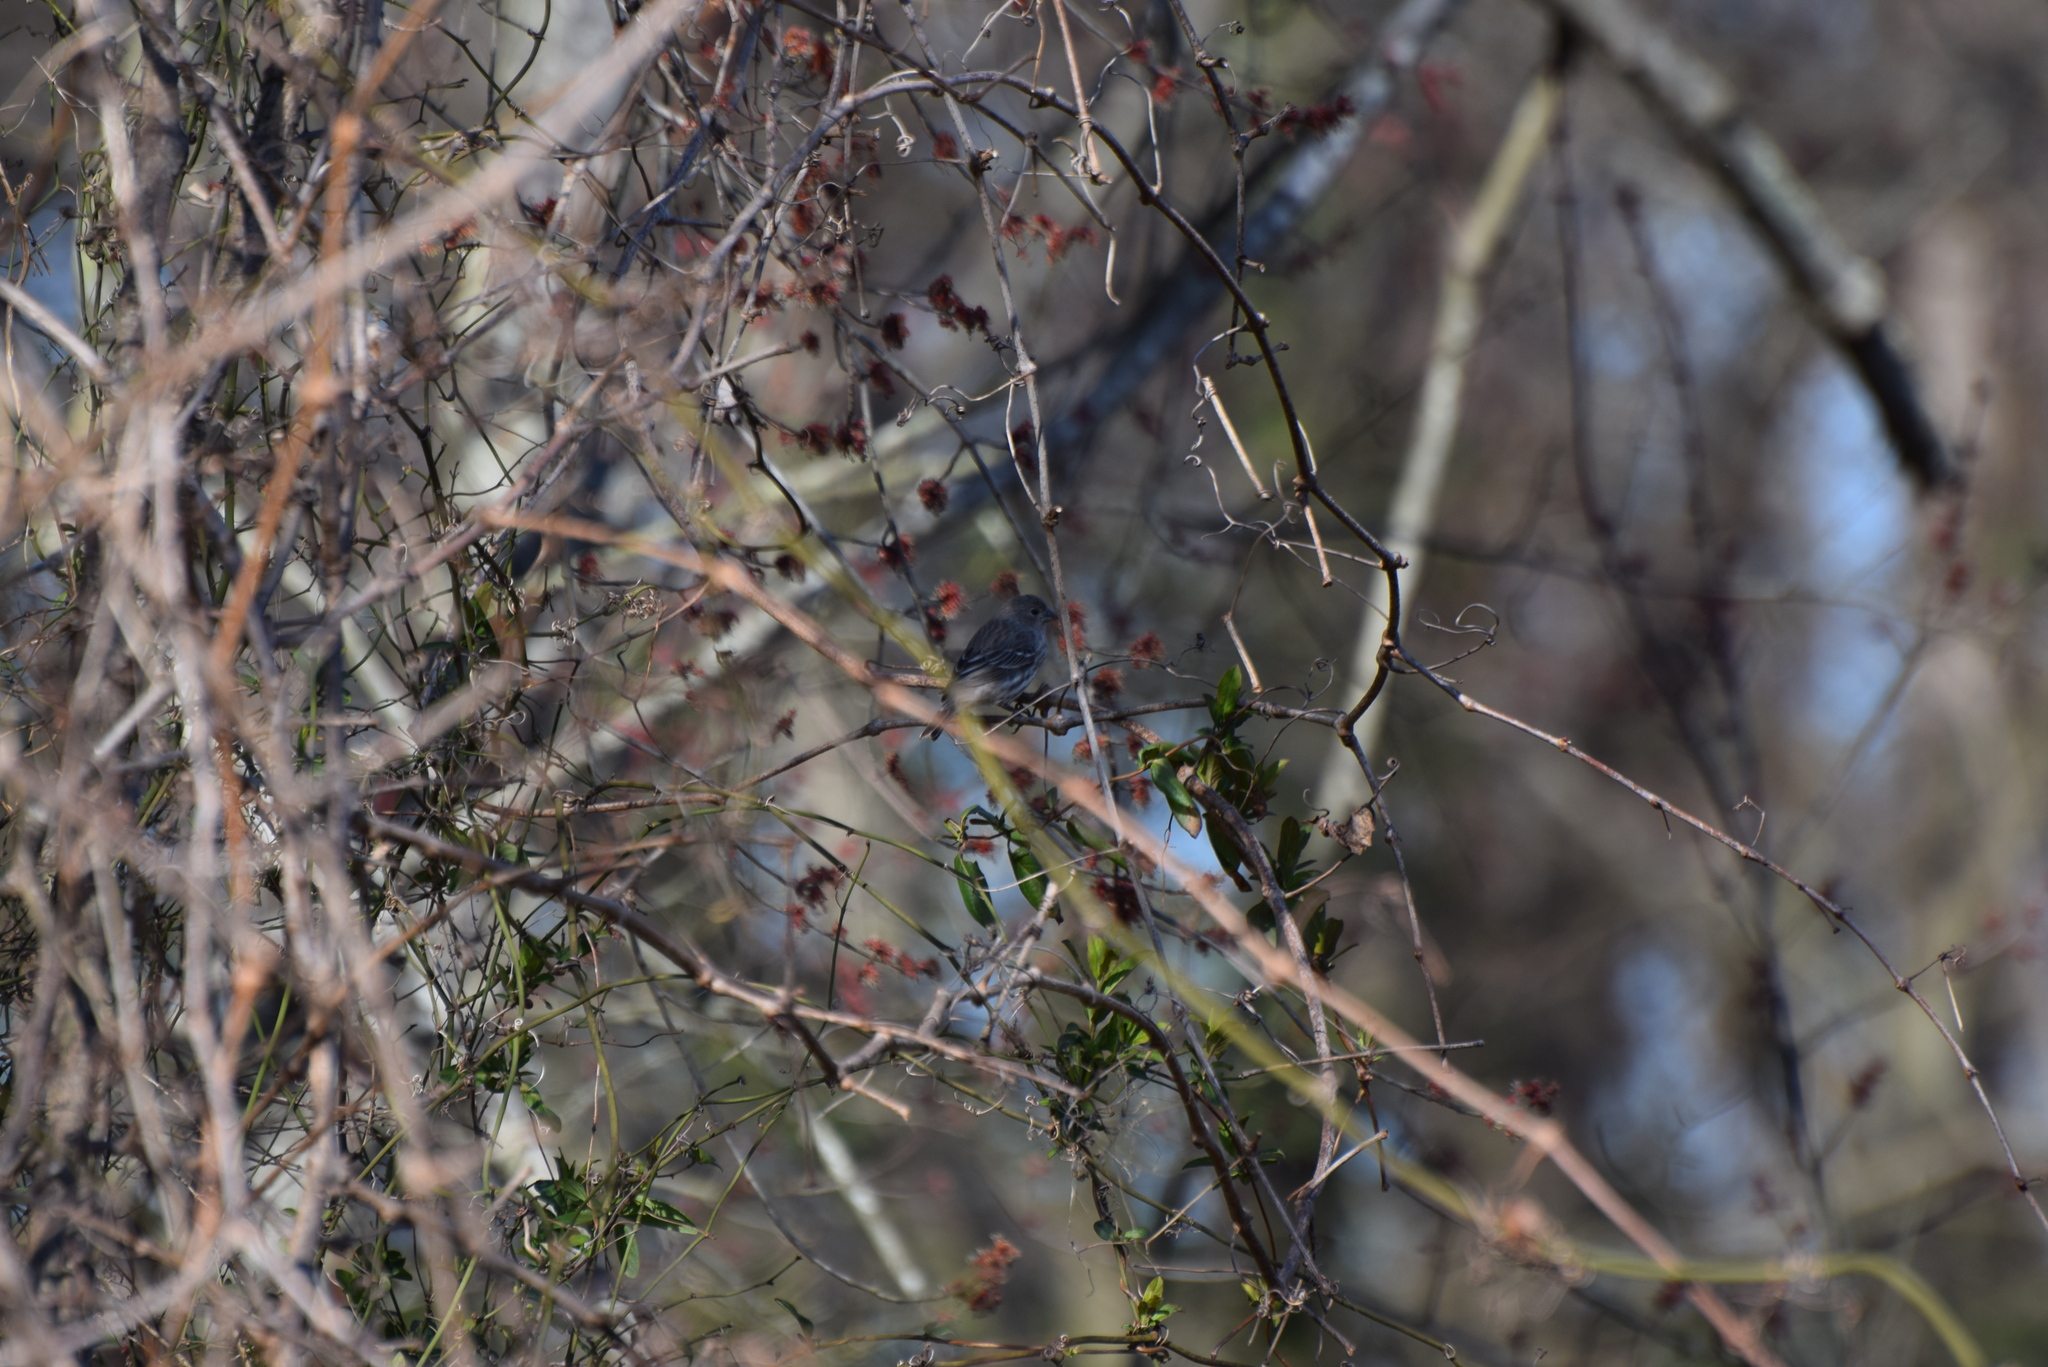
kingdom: Animalia
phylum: Chordata
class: Aves
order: Passeriformes
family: Fringillidae
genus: Haemorhous
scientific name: Haemorhous mexicanus
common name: House finch
